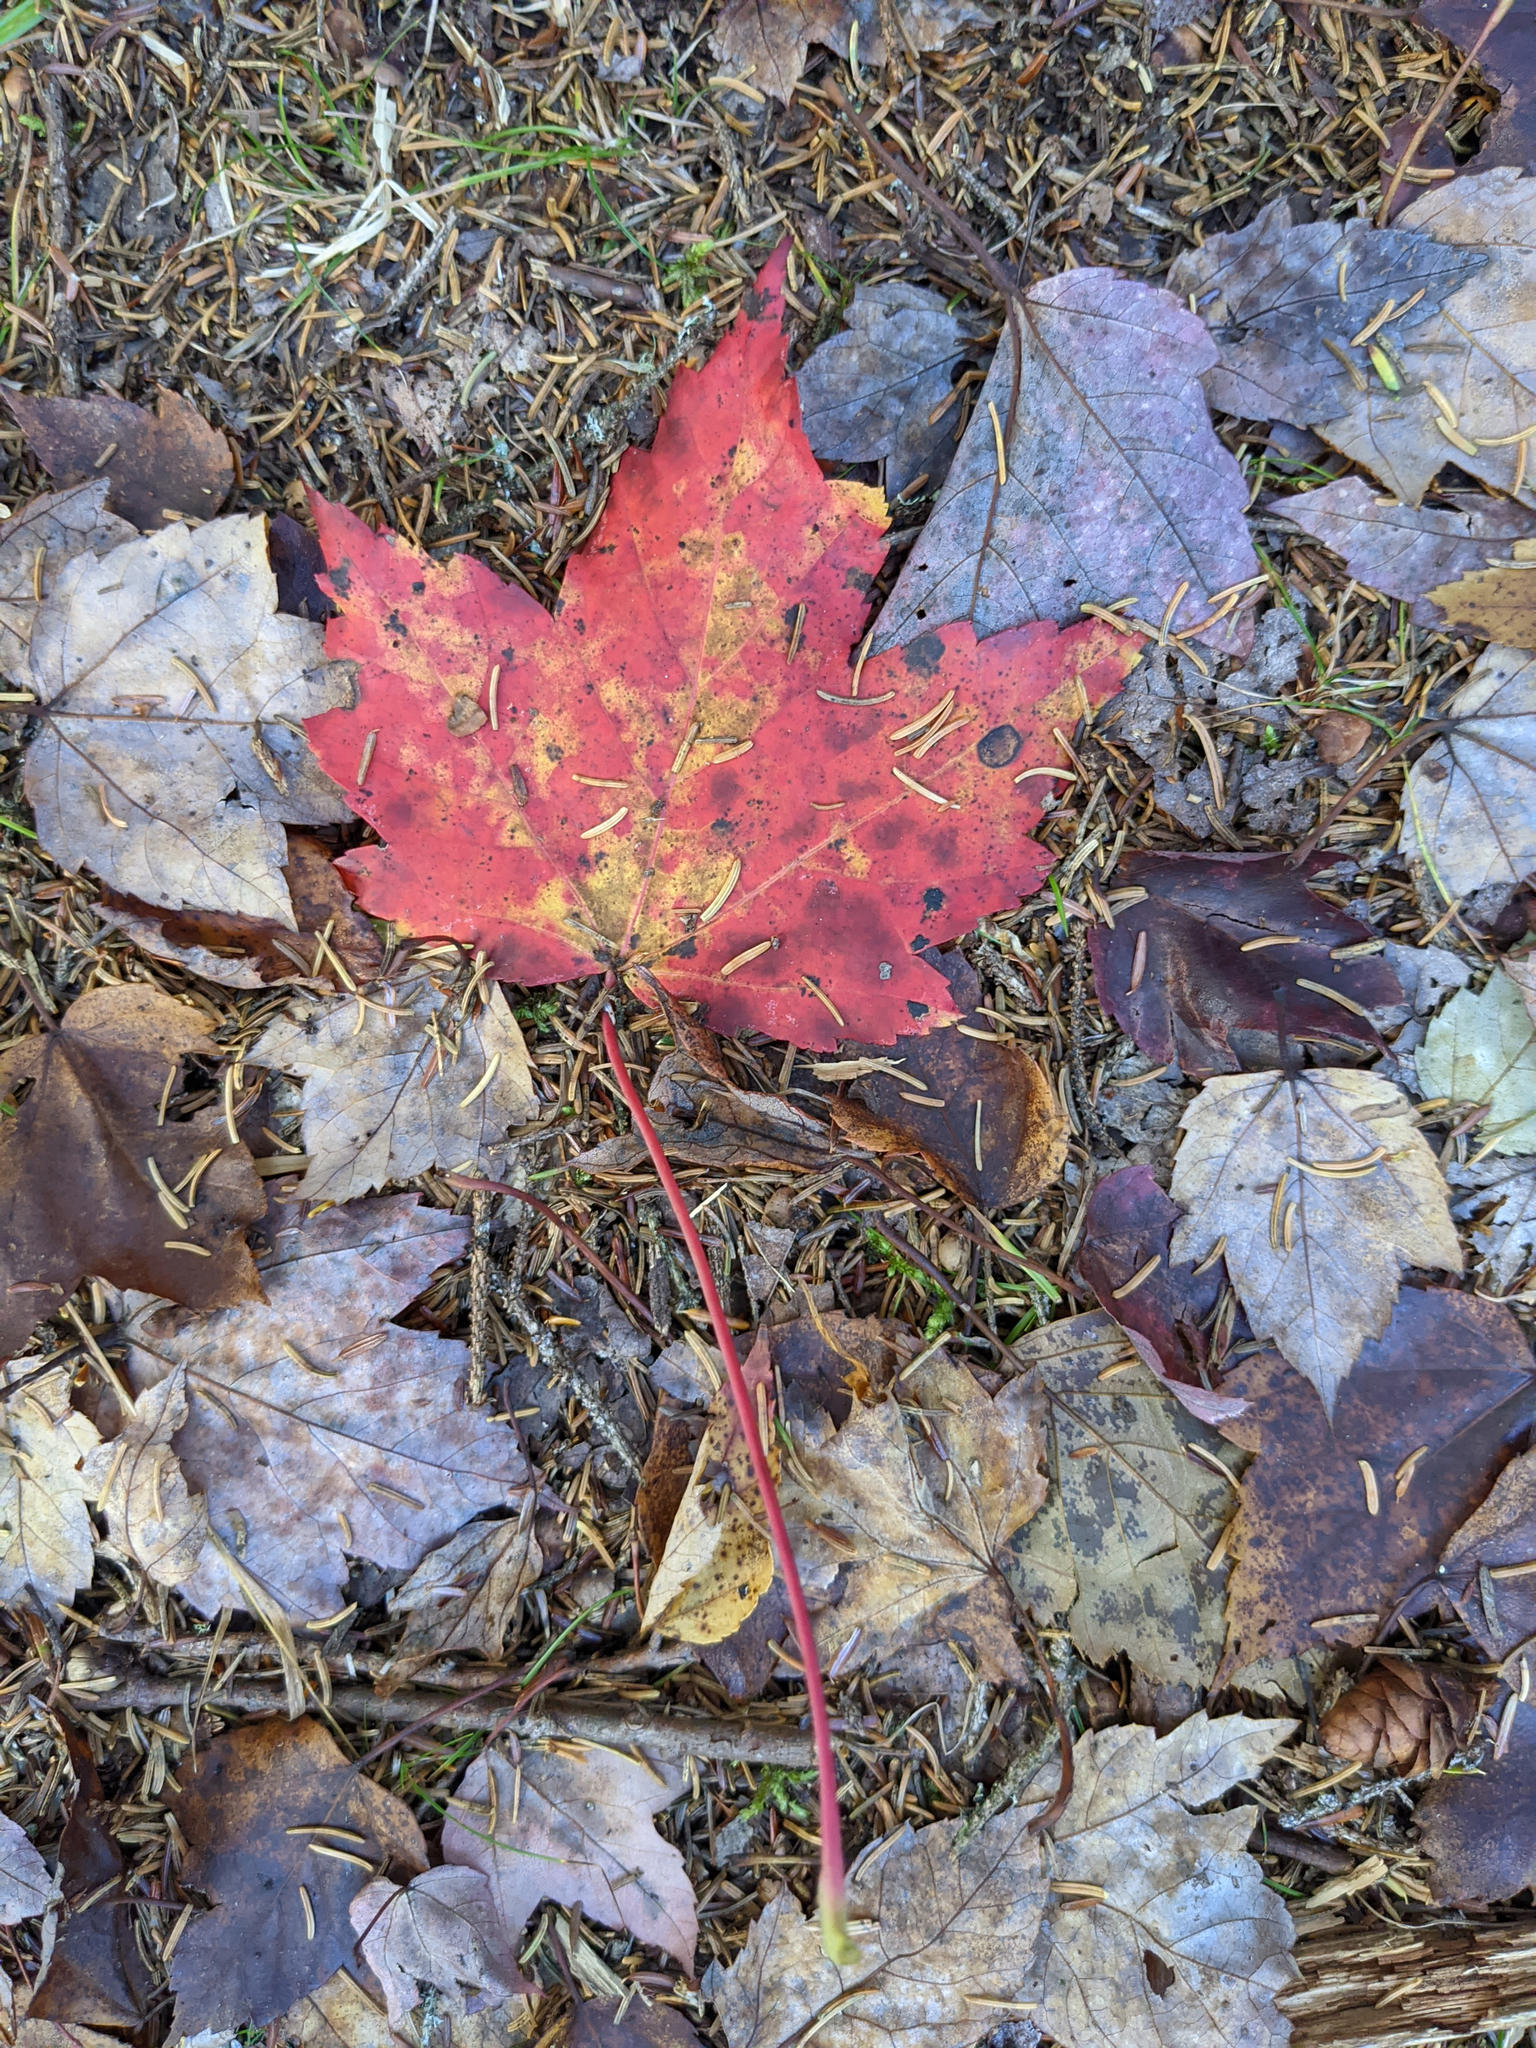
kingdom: Plantae
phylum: Tracheophyta
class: Magnoliopsida
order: Sapindales
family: Sapindaceae
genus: Acer
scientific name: Acer rubrum
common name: Red maple
